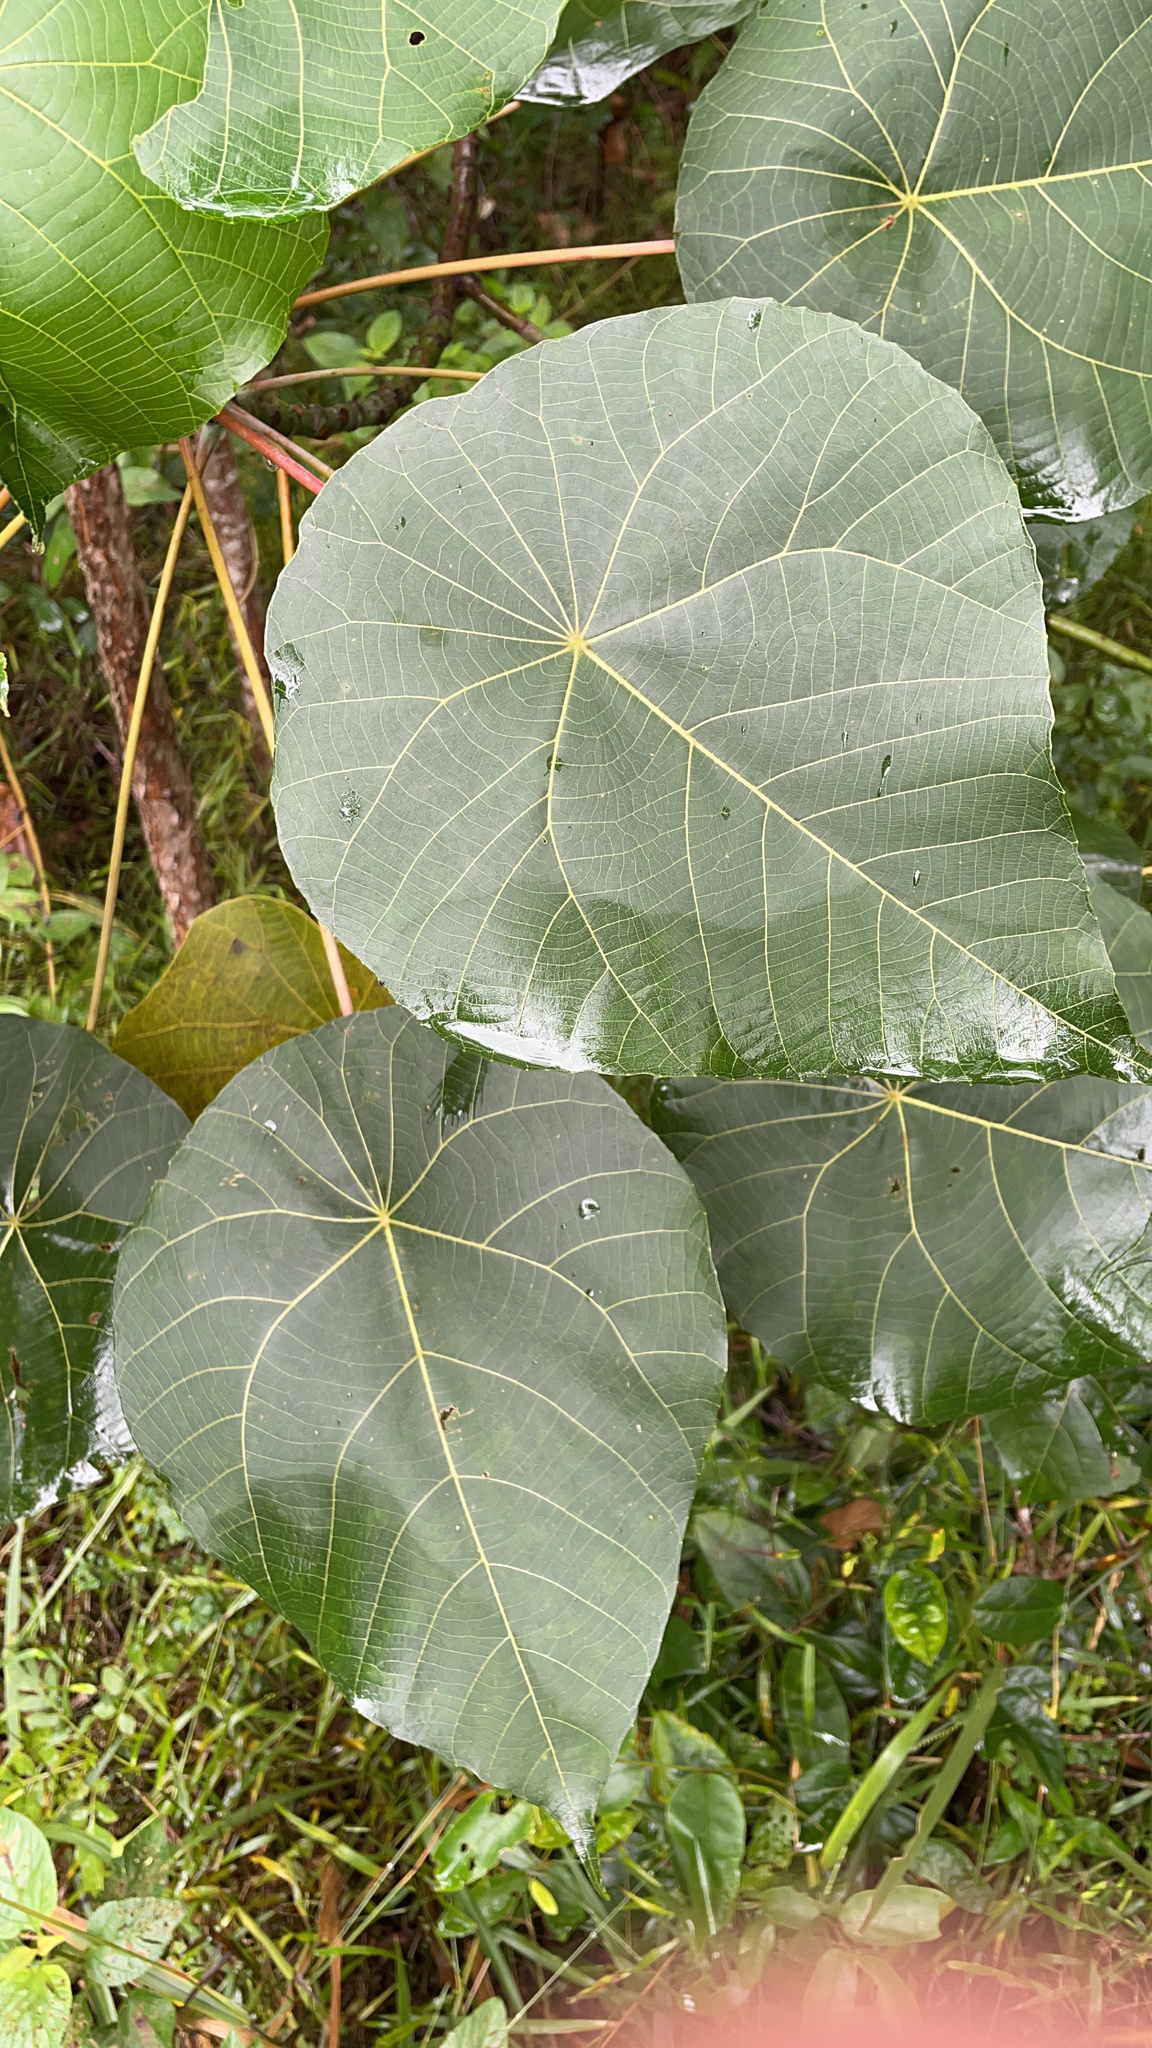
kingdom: Plantae
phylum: Tracheophyta
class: Magnoliopsida
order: Malpighiales
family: Euphorbiaceae
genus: Macaranga
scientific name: Macaranga tanarius
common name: Parasol leaf tree
